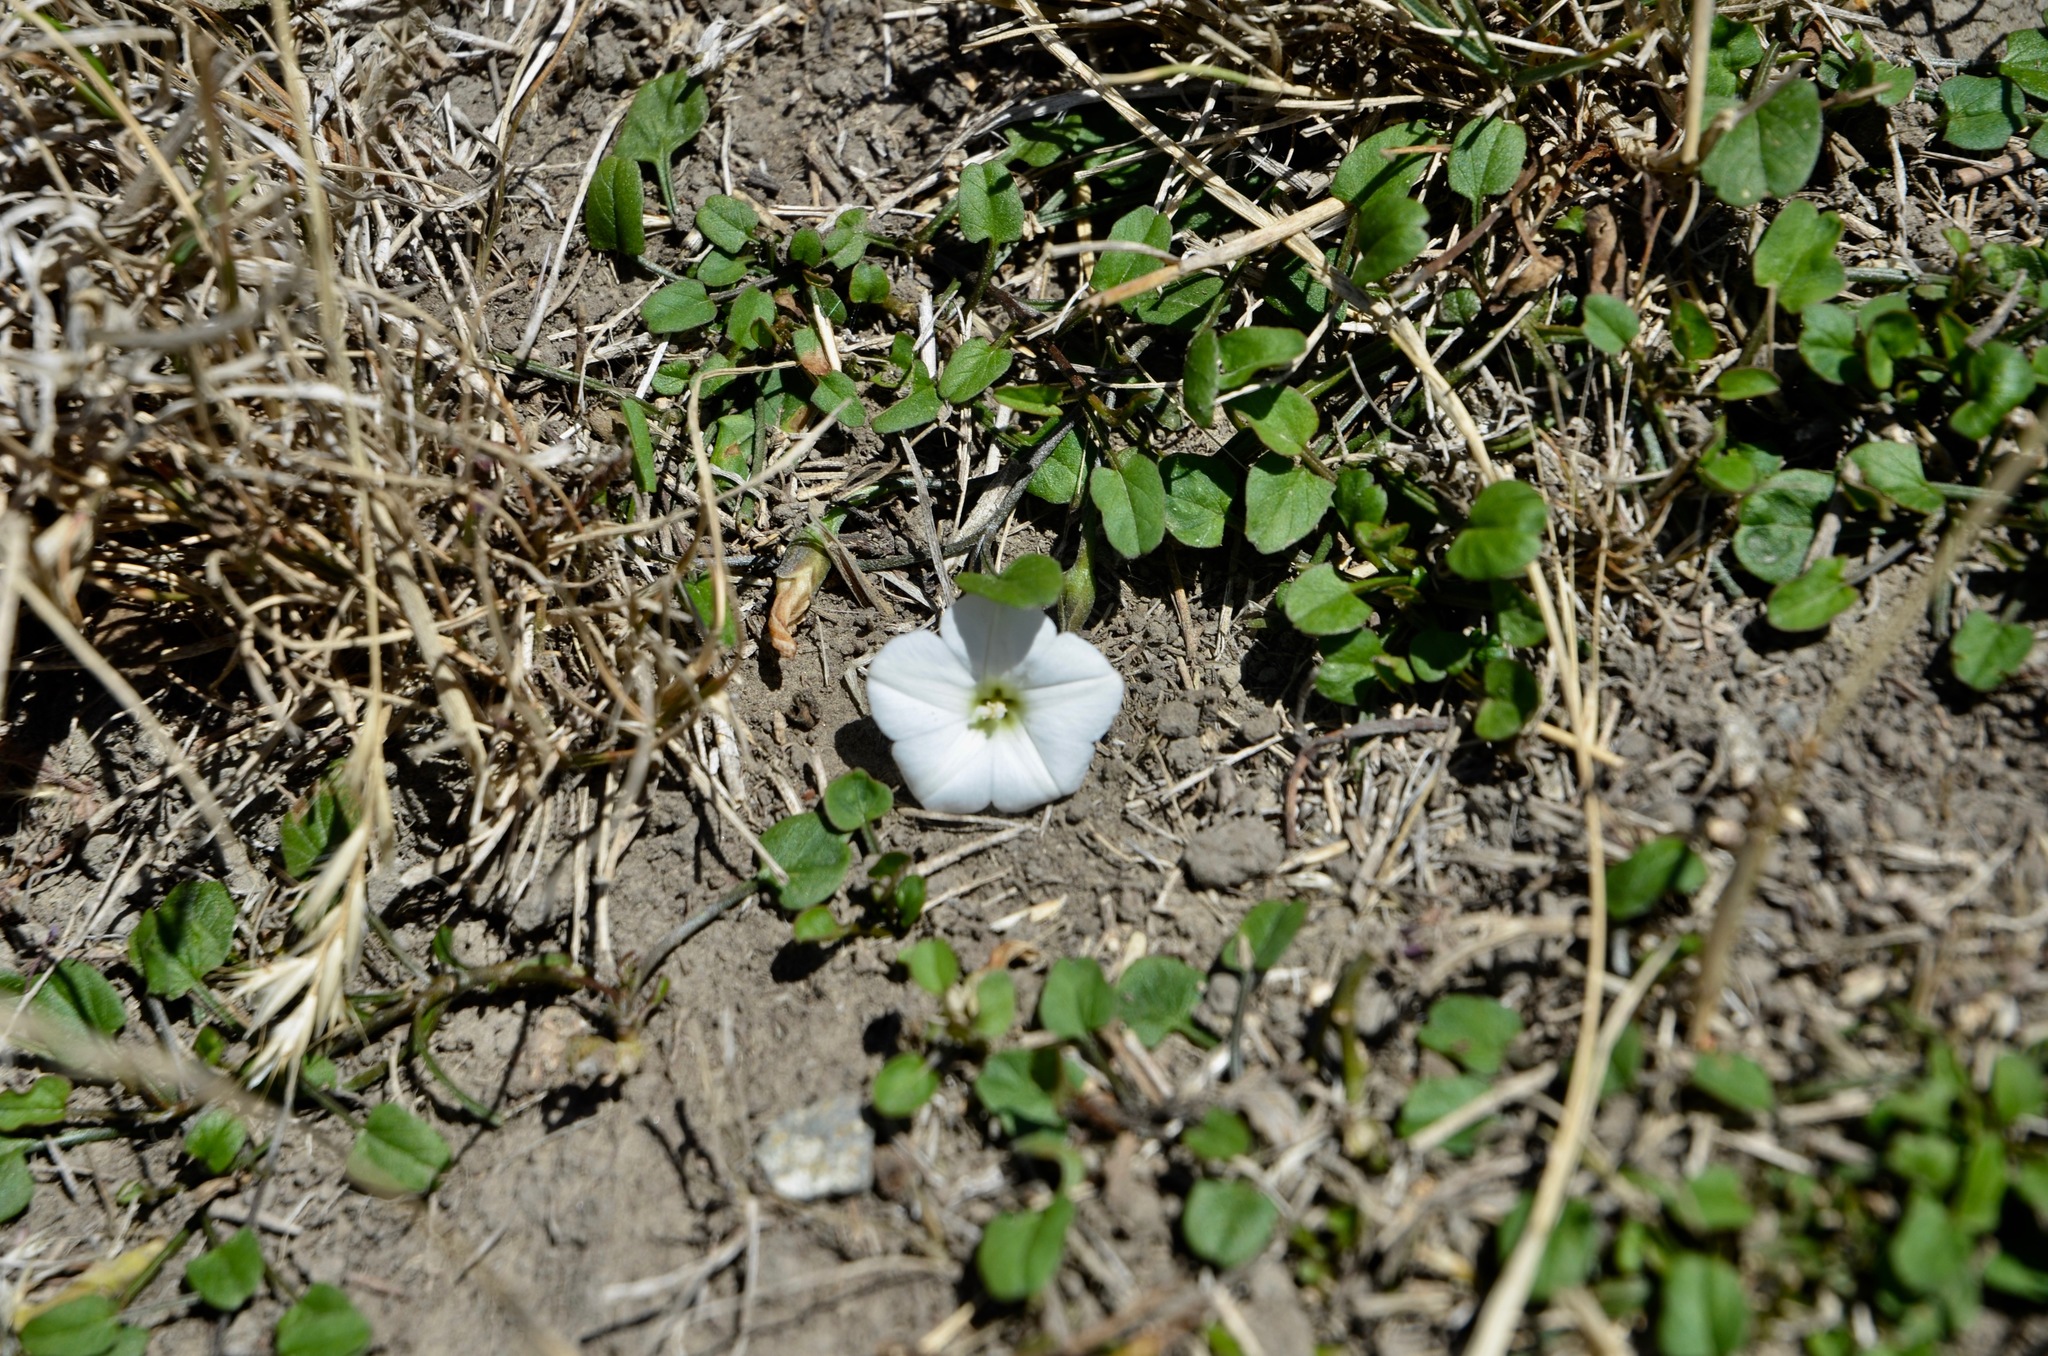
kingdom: Plantae
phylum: Tracheophyta
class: Magnoliopsida
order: Solanales
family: Convolvulaceae
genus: Convolvulus
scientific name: Convolvulus waitaha
